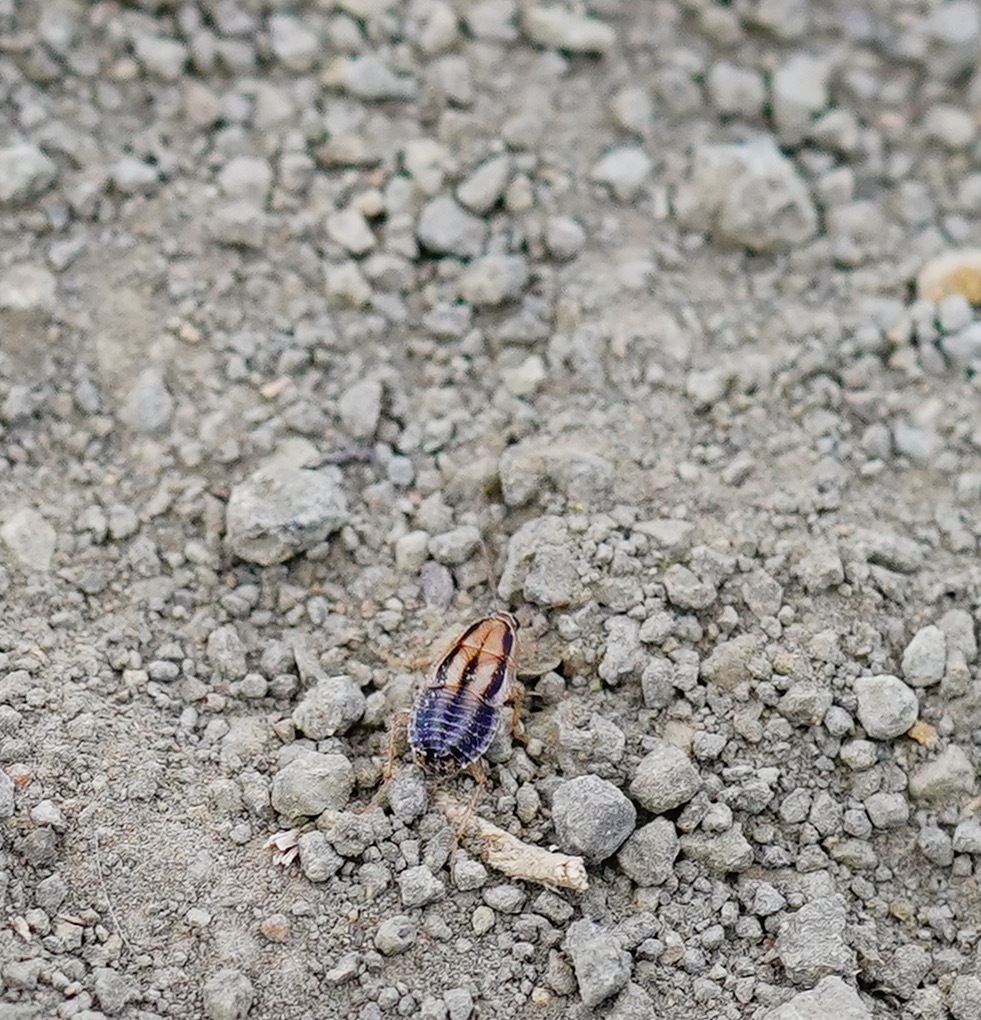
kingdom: Animalia
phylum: Arthropoda
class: Insecta
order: Blattodea
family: Ectobiidae
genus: Luridiblatta
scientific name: Luridiblatta trivittata
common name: Three-lined cockroach
